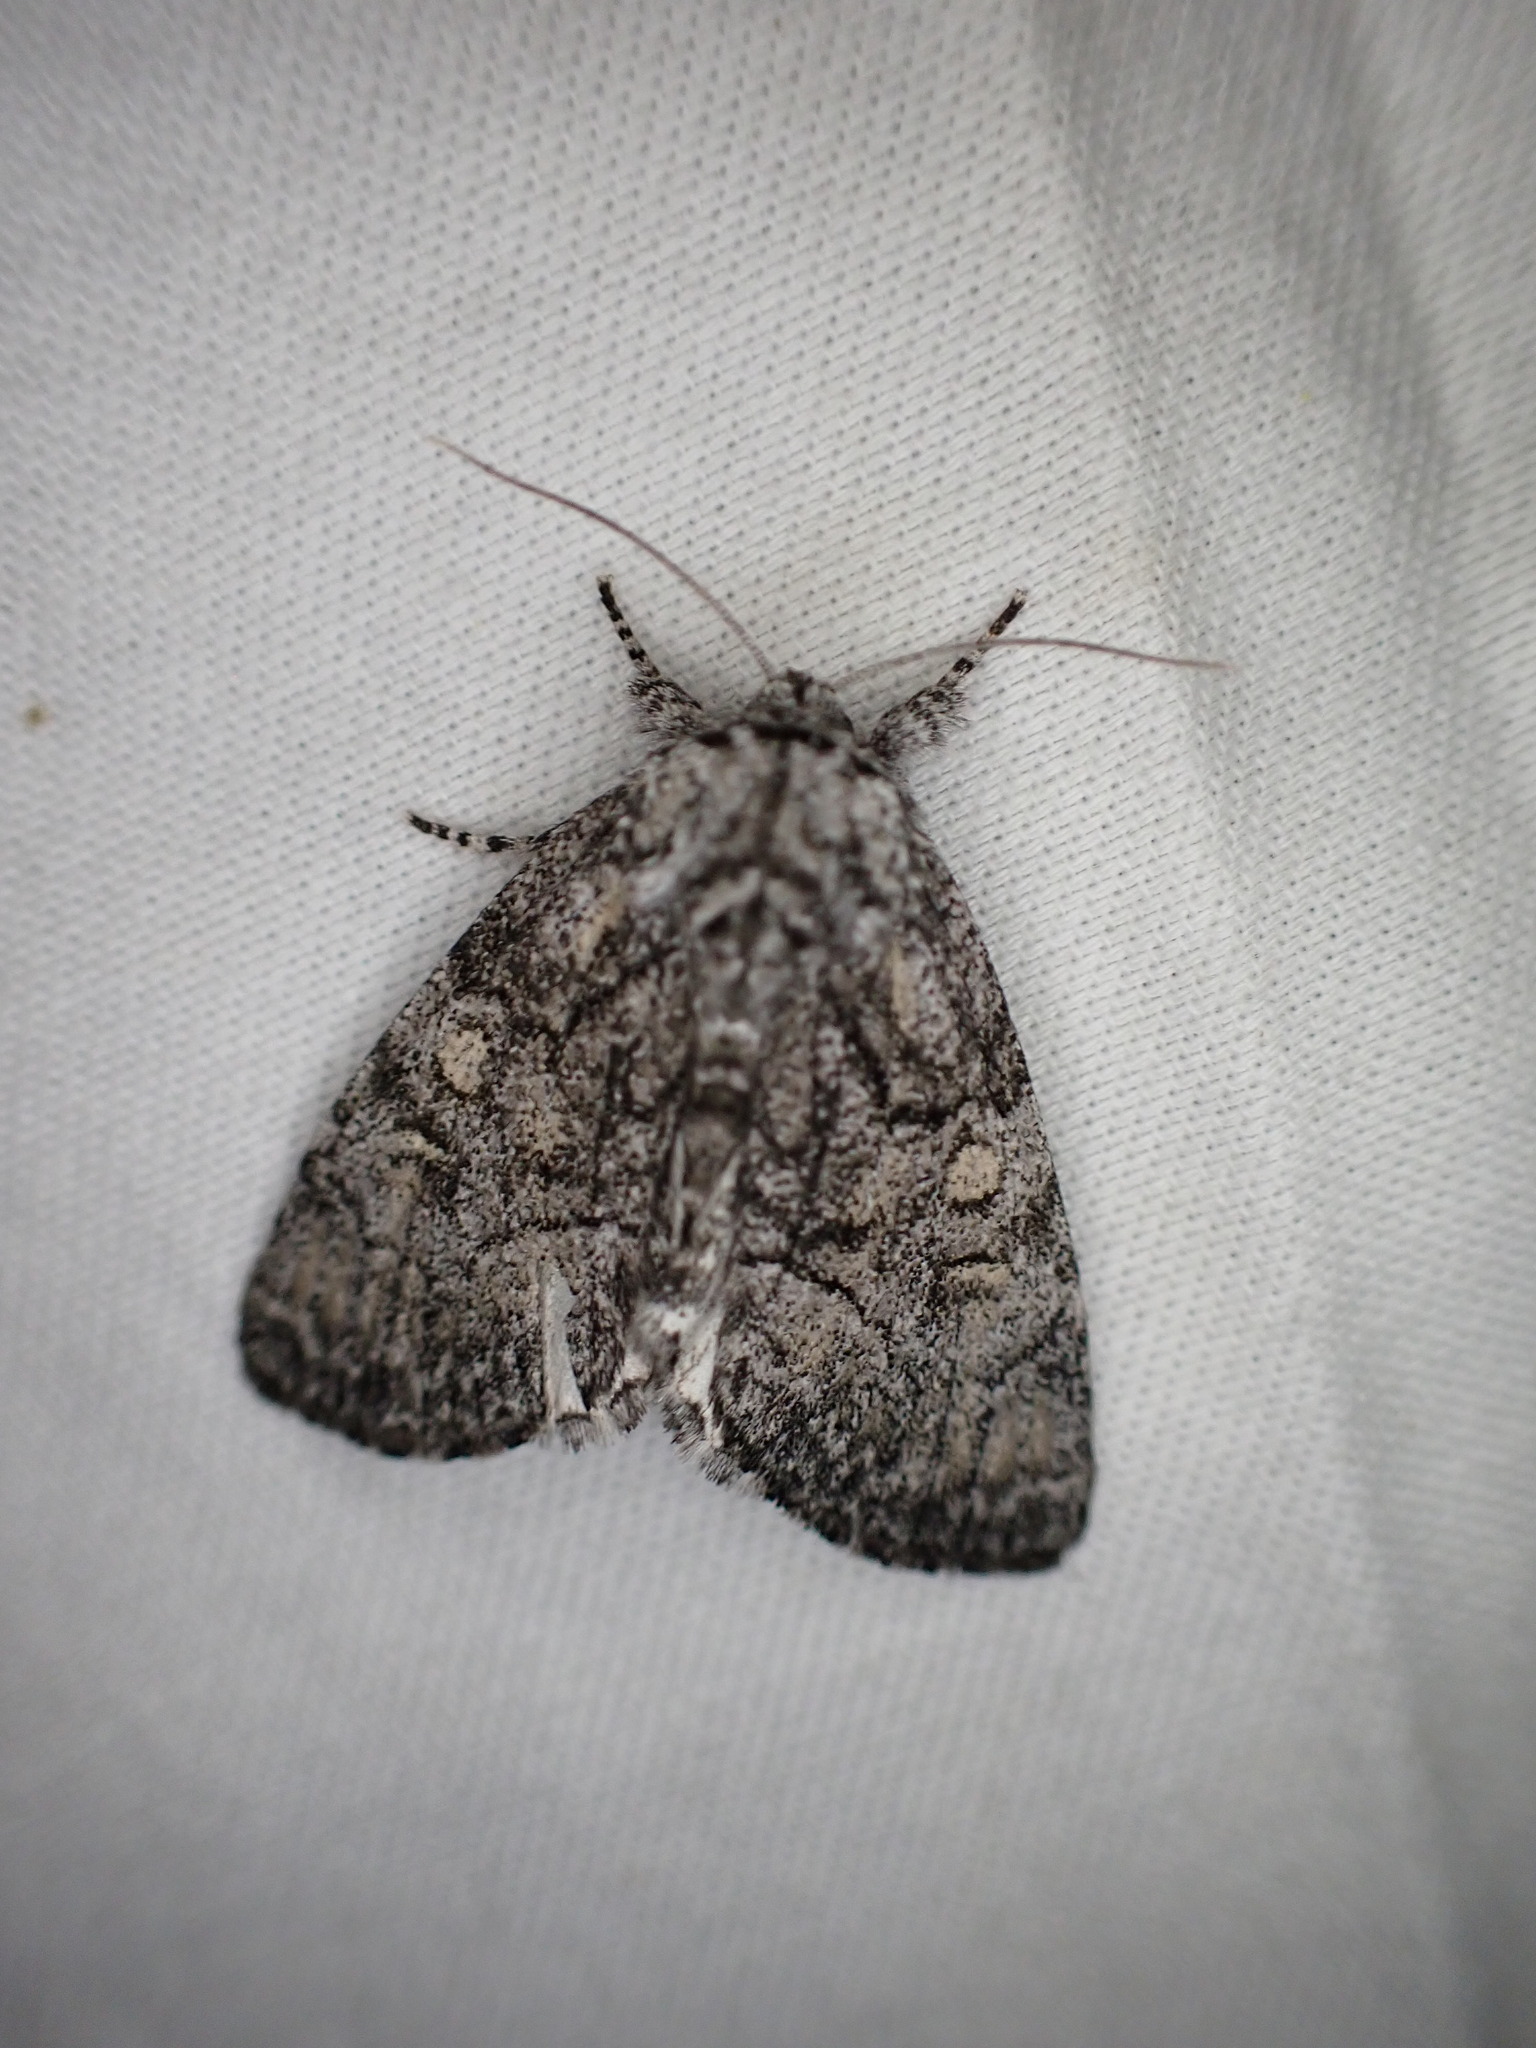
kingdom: Animalia
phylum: Arthropoda
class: Insecta
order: Lepidoptera
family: Noctuidae
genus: Raphia
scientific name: Raphia frater
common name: Brother
